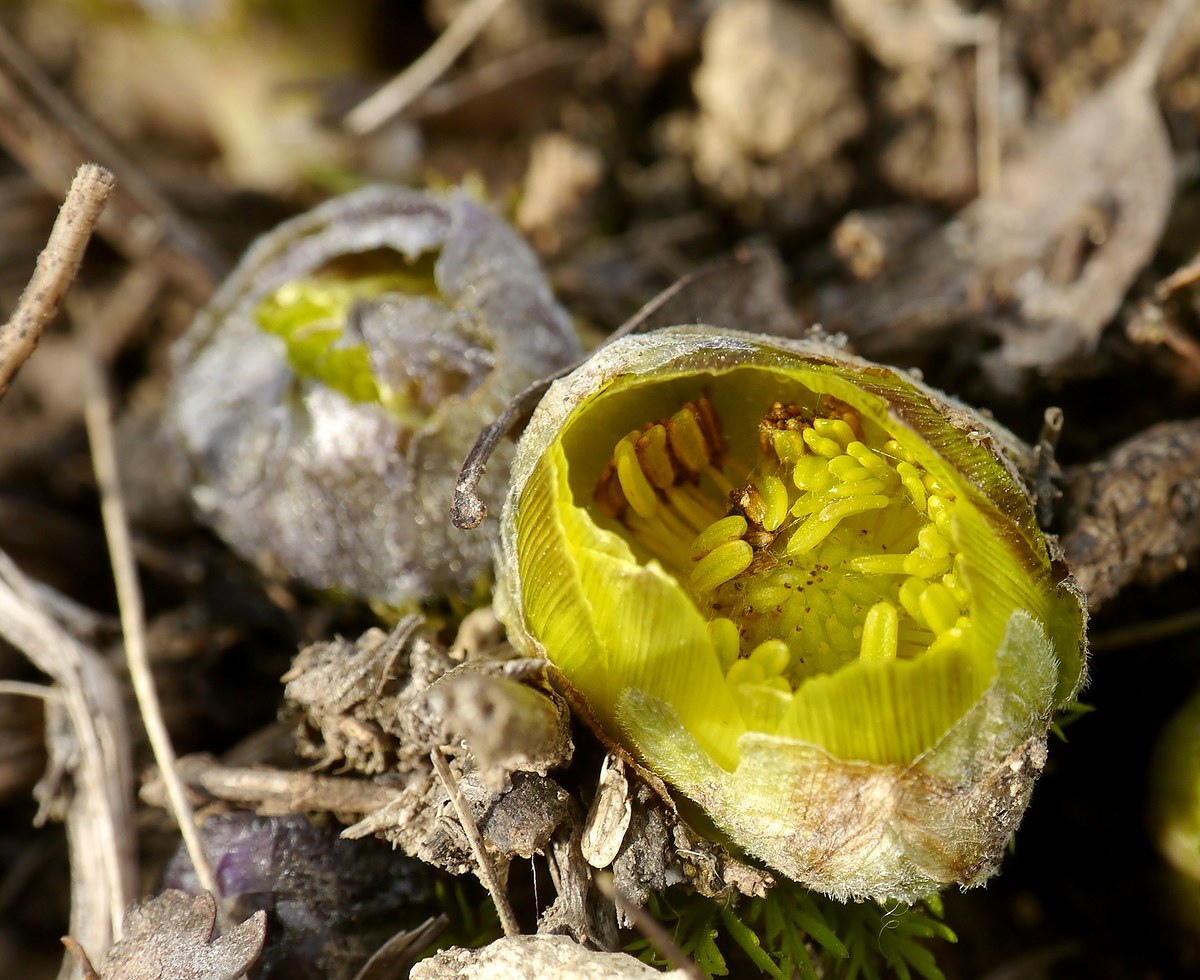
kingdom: Plantae
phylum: Tracheophyta
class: Magnoliopsida
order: Ranunculales
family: Ranunculaceae
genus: Adonis
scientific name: Adonis vernalis
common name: Yellow pheasants-eye
